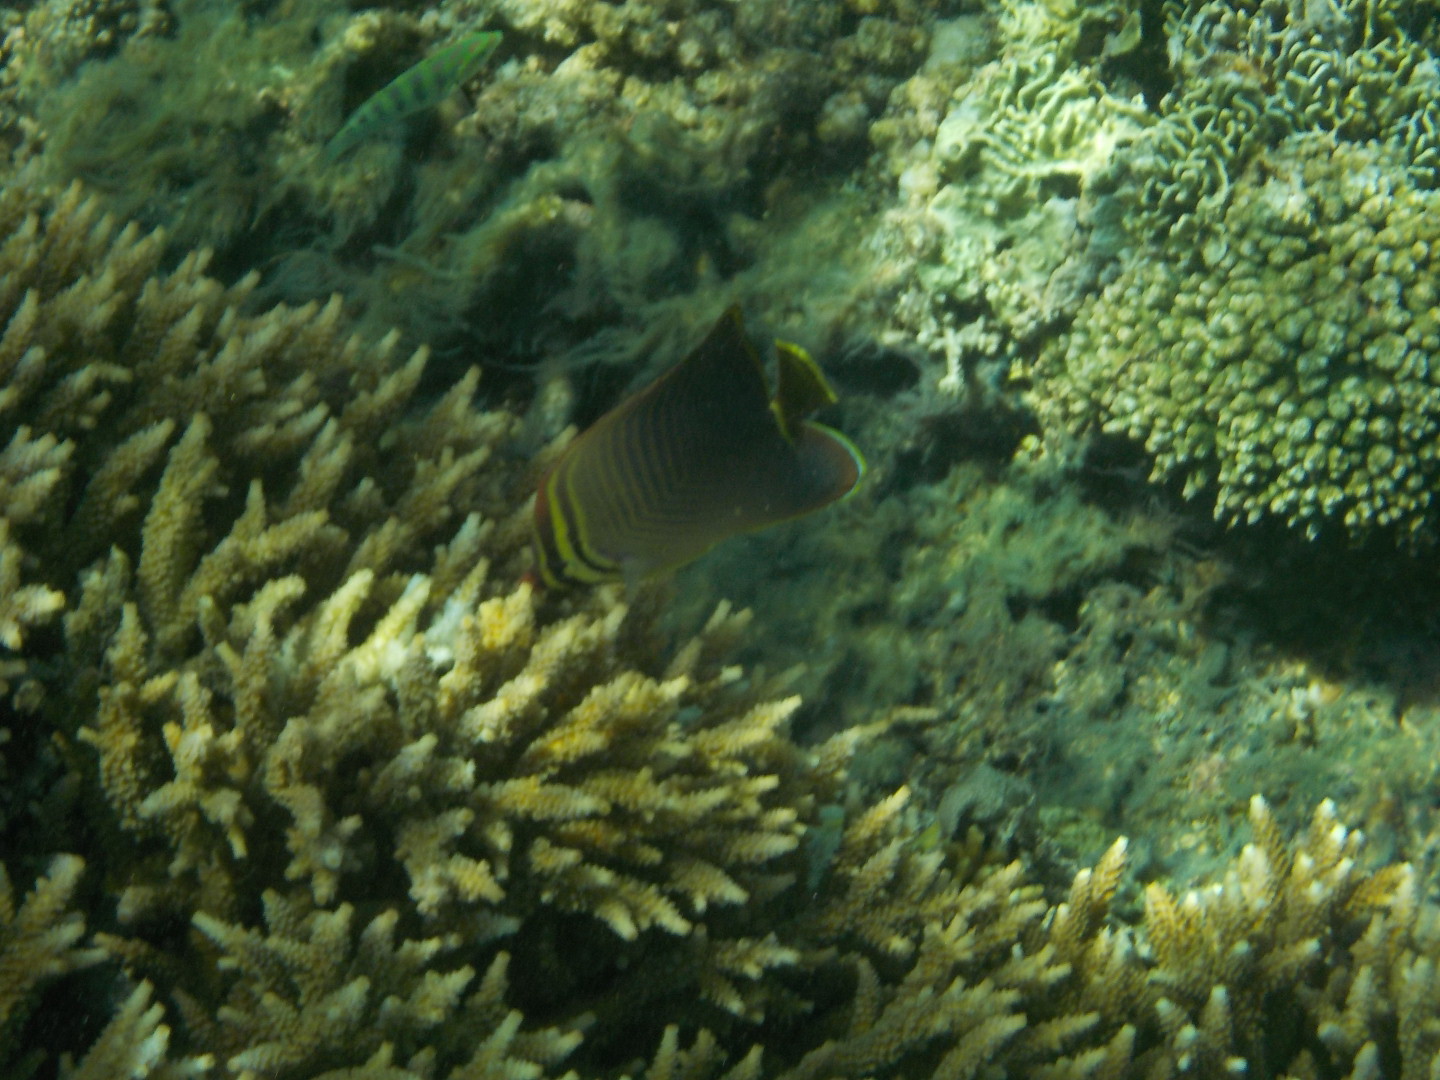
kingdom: Animalia
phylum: Chordata
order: Perciformes
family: Chaetodontidae
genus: Chaetodon
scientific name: Chaetodon baronessa
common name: Triangular butterflyfish
